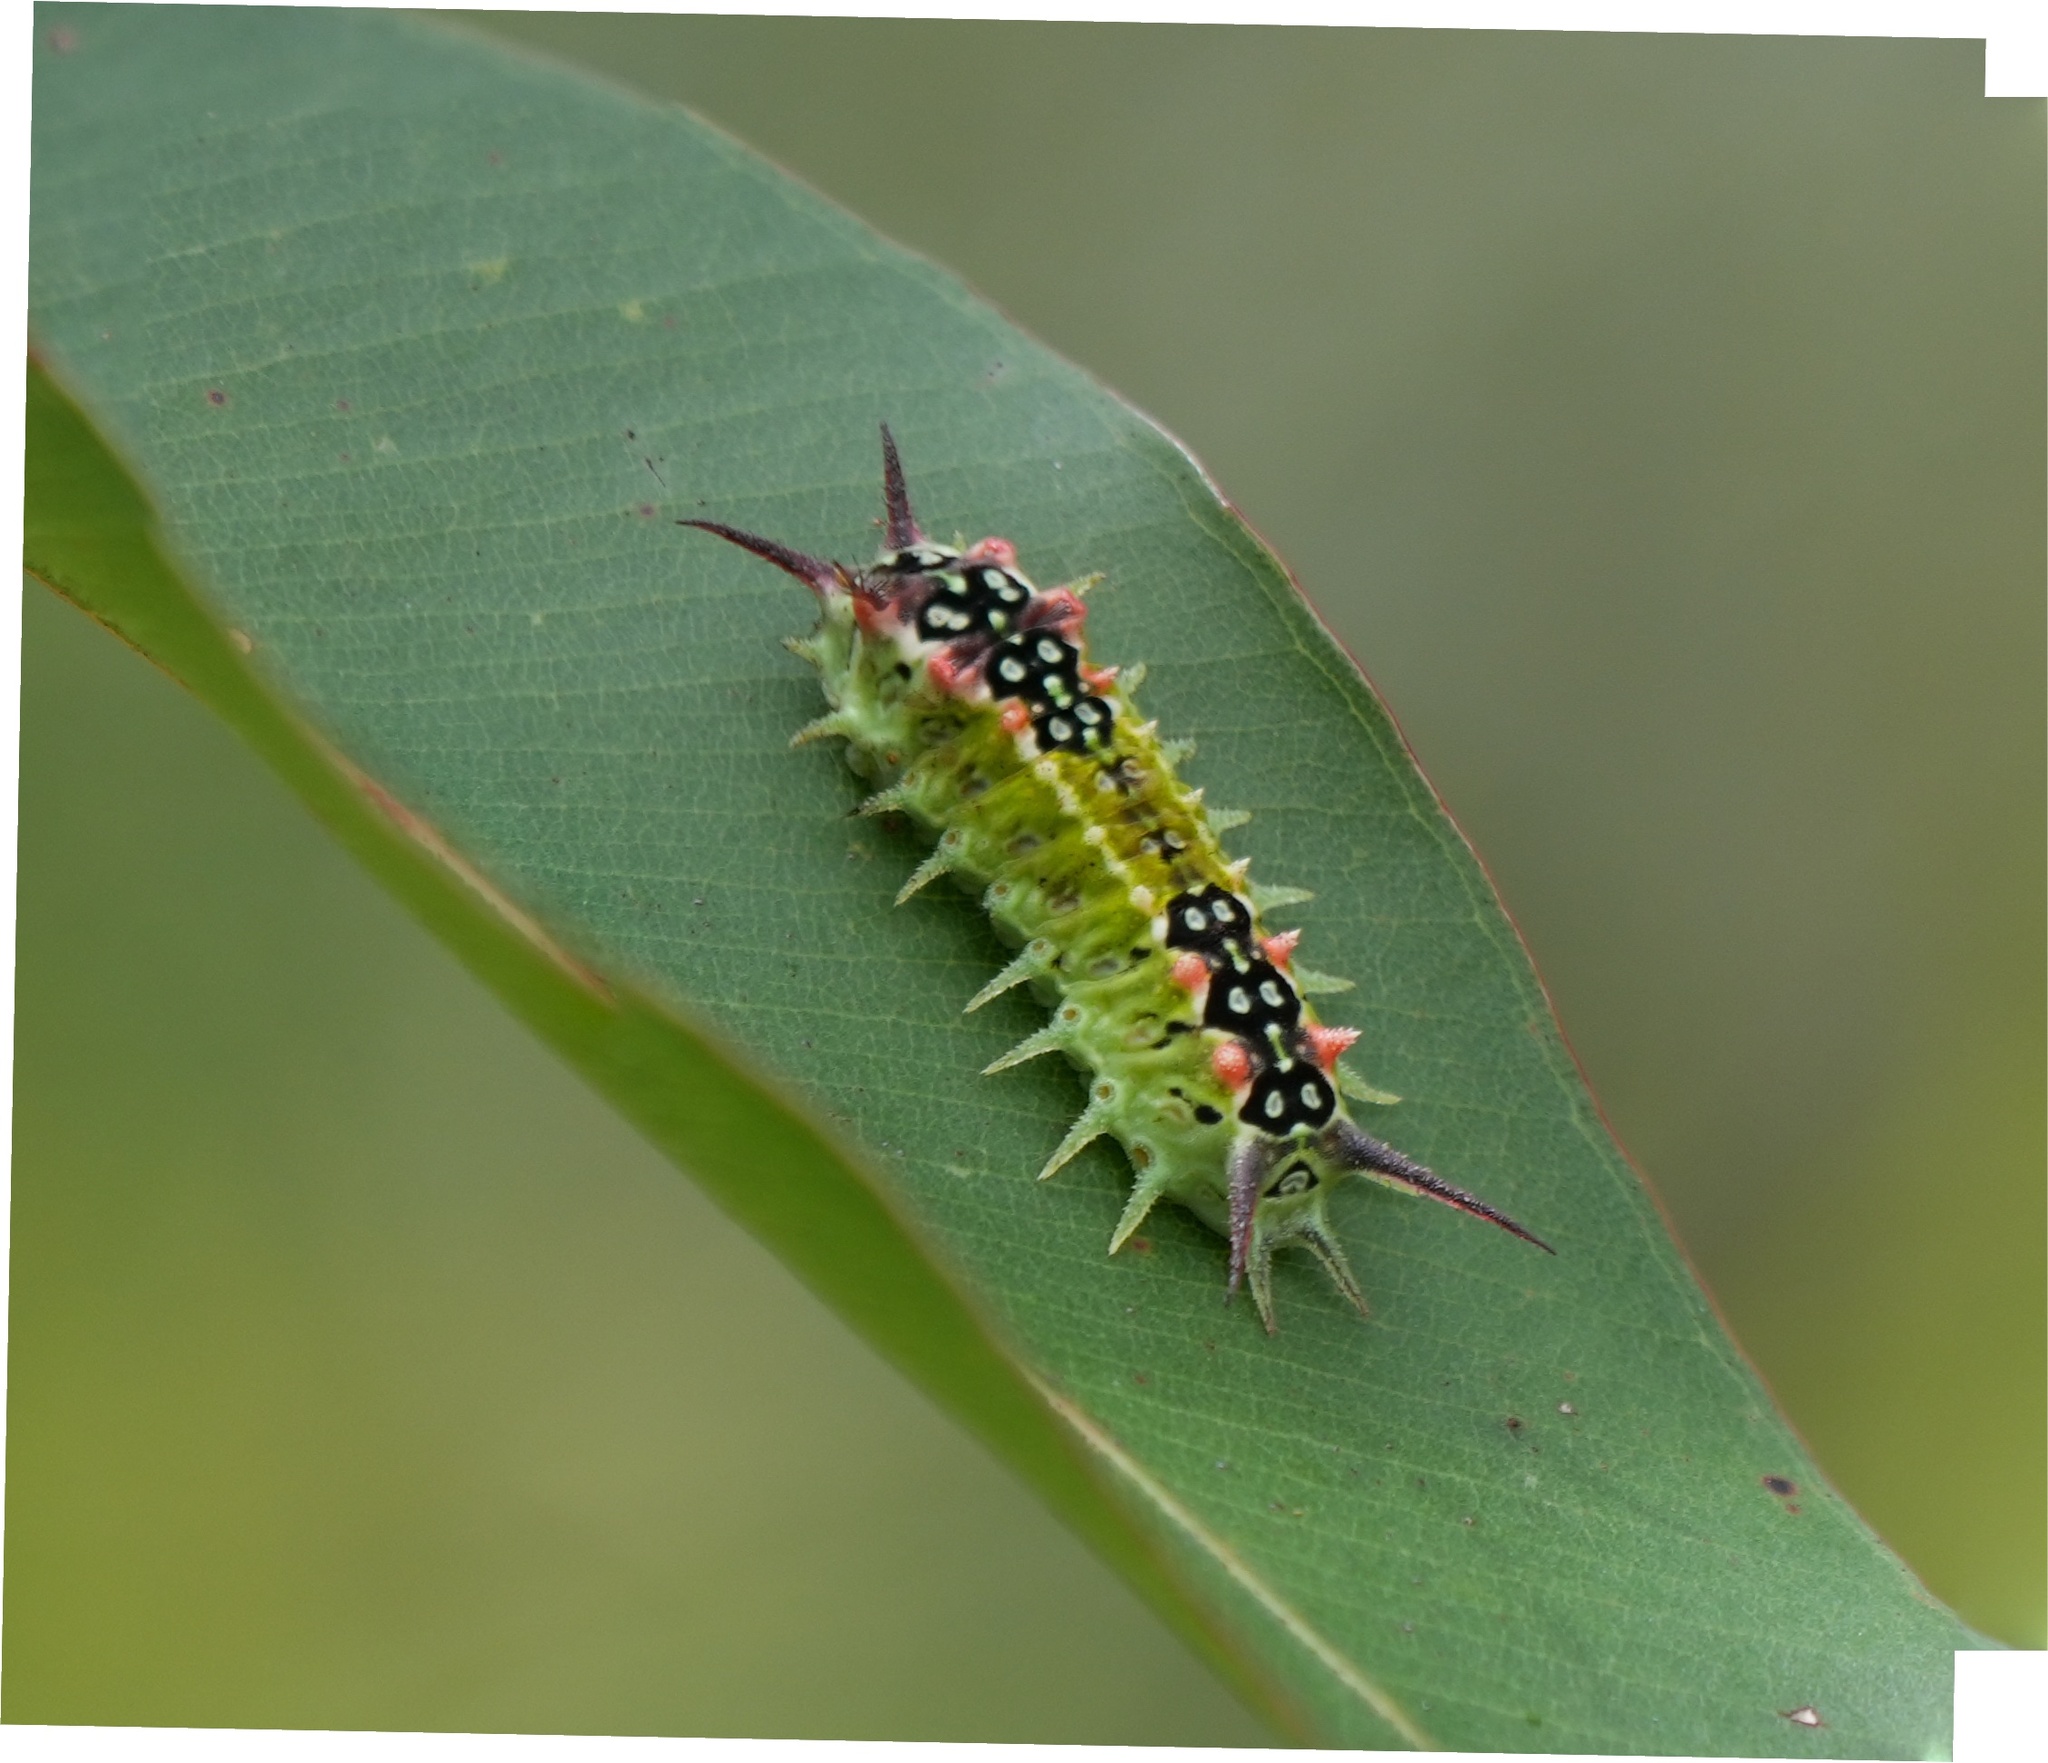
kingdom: Animalia
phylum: Arthropoda
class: Insecta
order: Lepidoptera
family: Limacodidae
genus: Doratifera
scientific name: Doratifera quadriguttata
